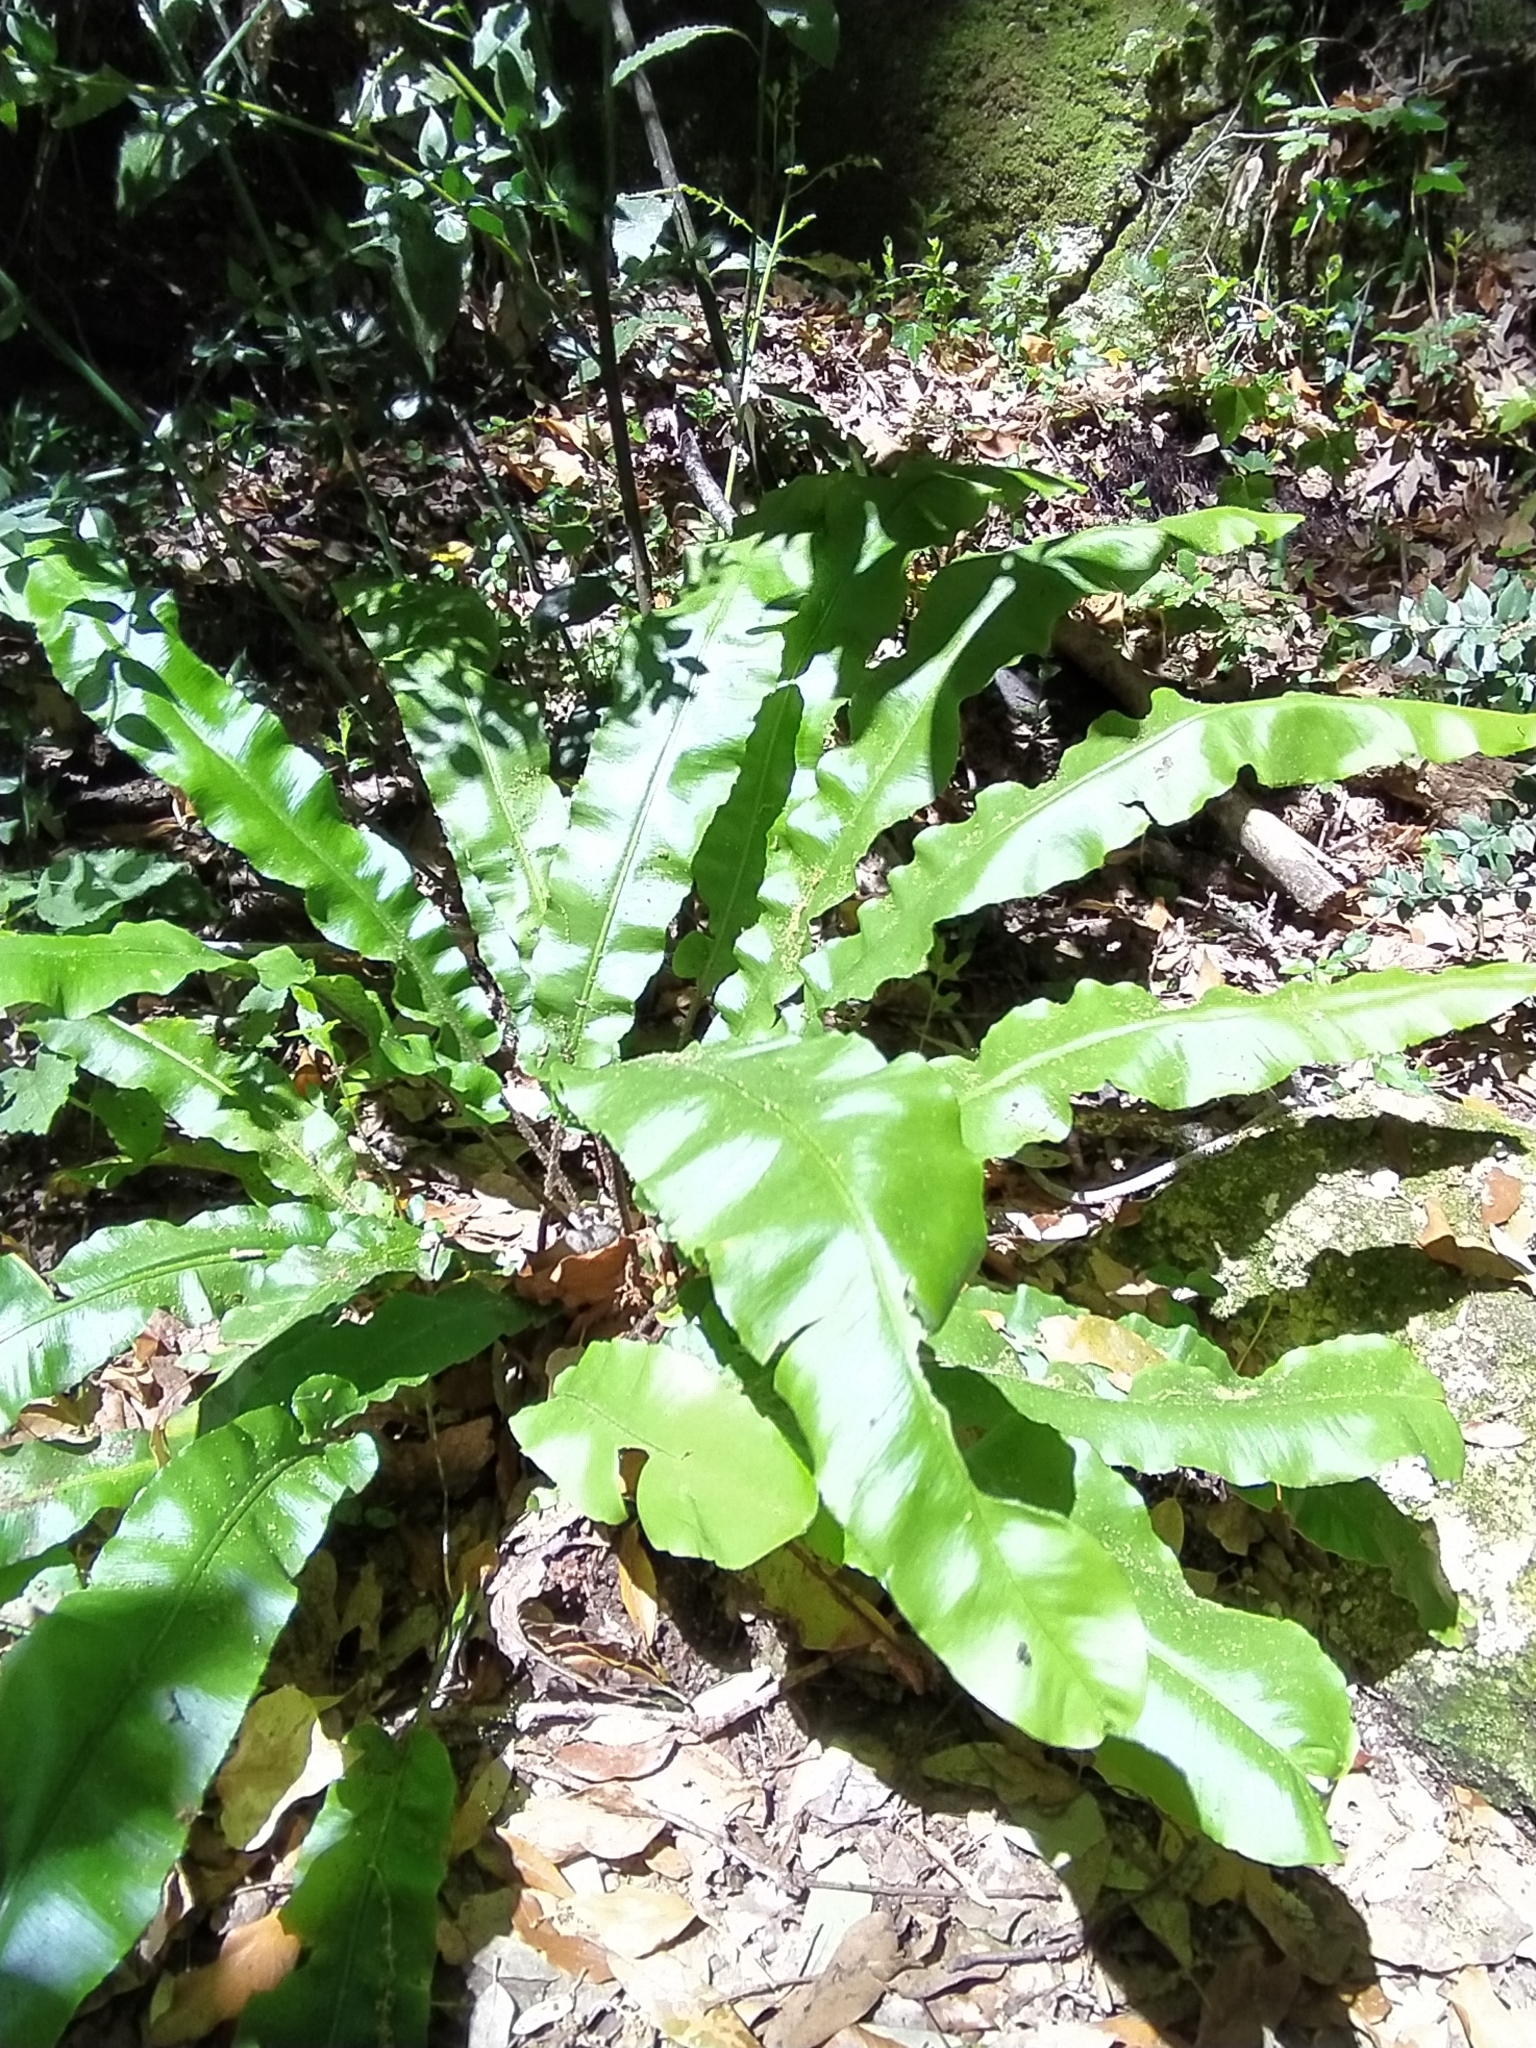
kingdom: Plantae
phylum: Tracheophyta
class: Polypodiopsida
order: Polypodiales
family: Aspleniaceae
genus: Asplenium
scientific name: Asplenium scolopendrium
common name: Hart's-tongue fern
